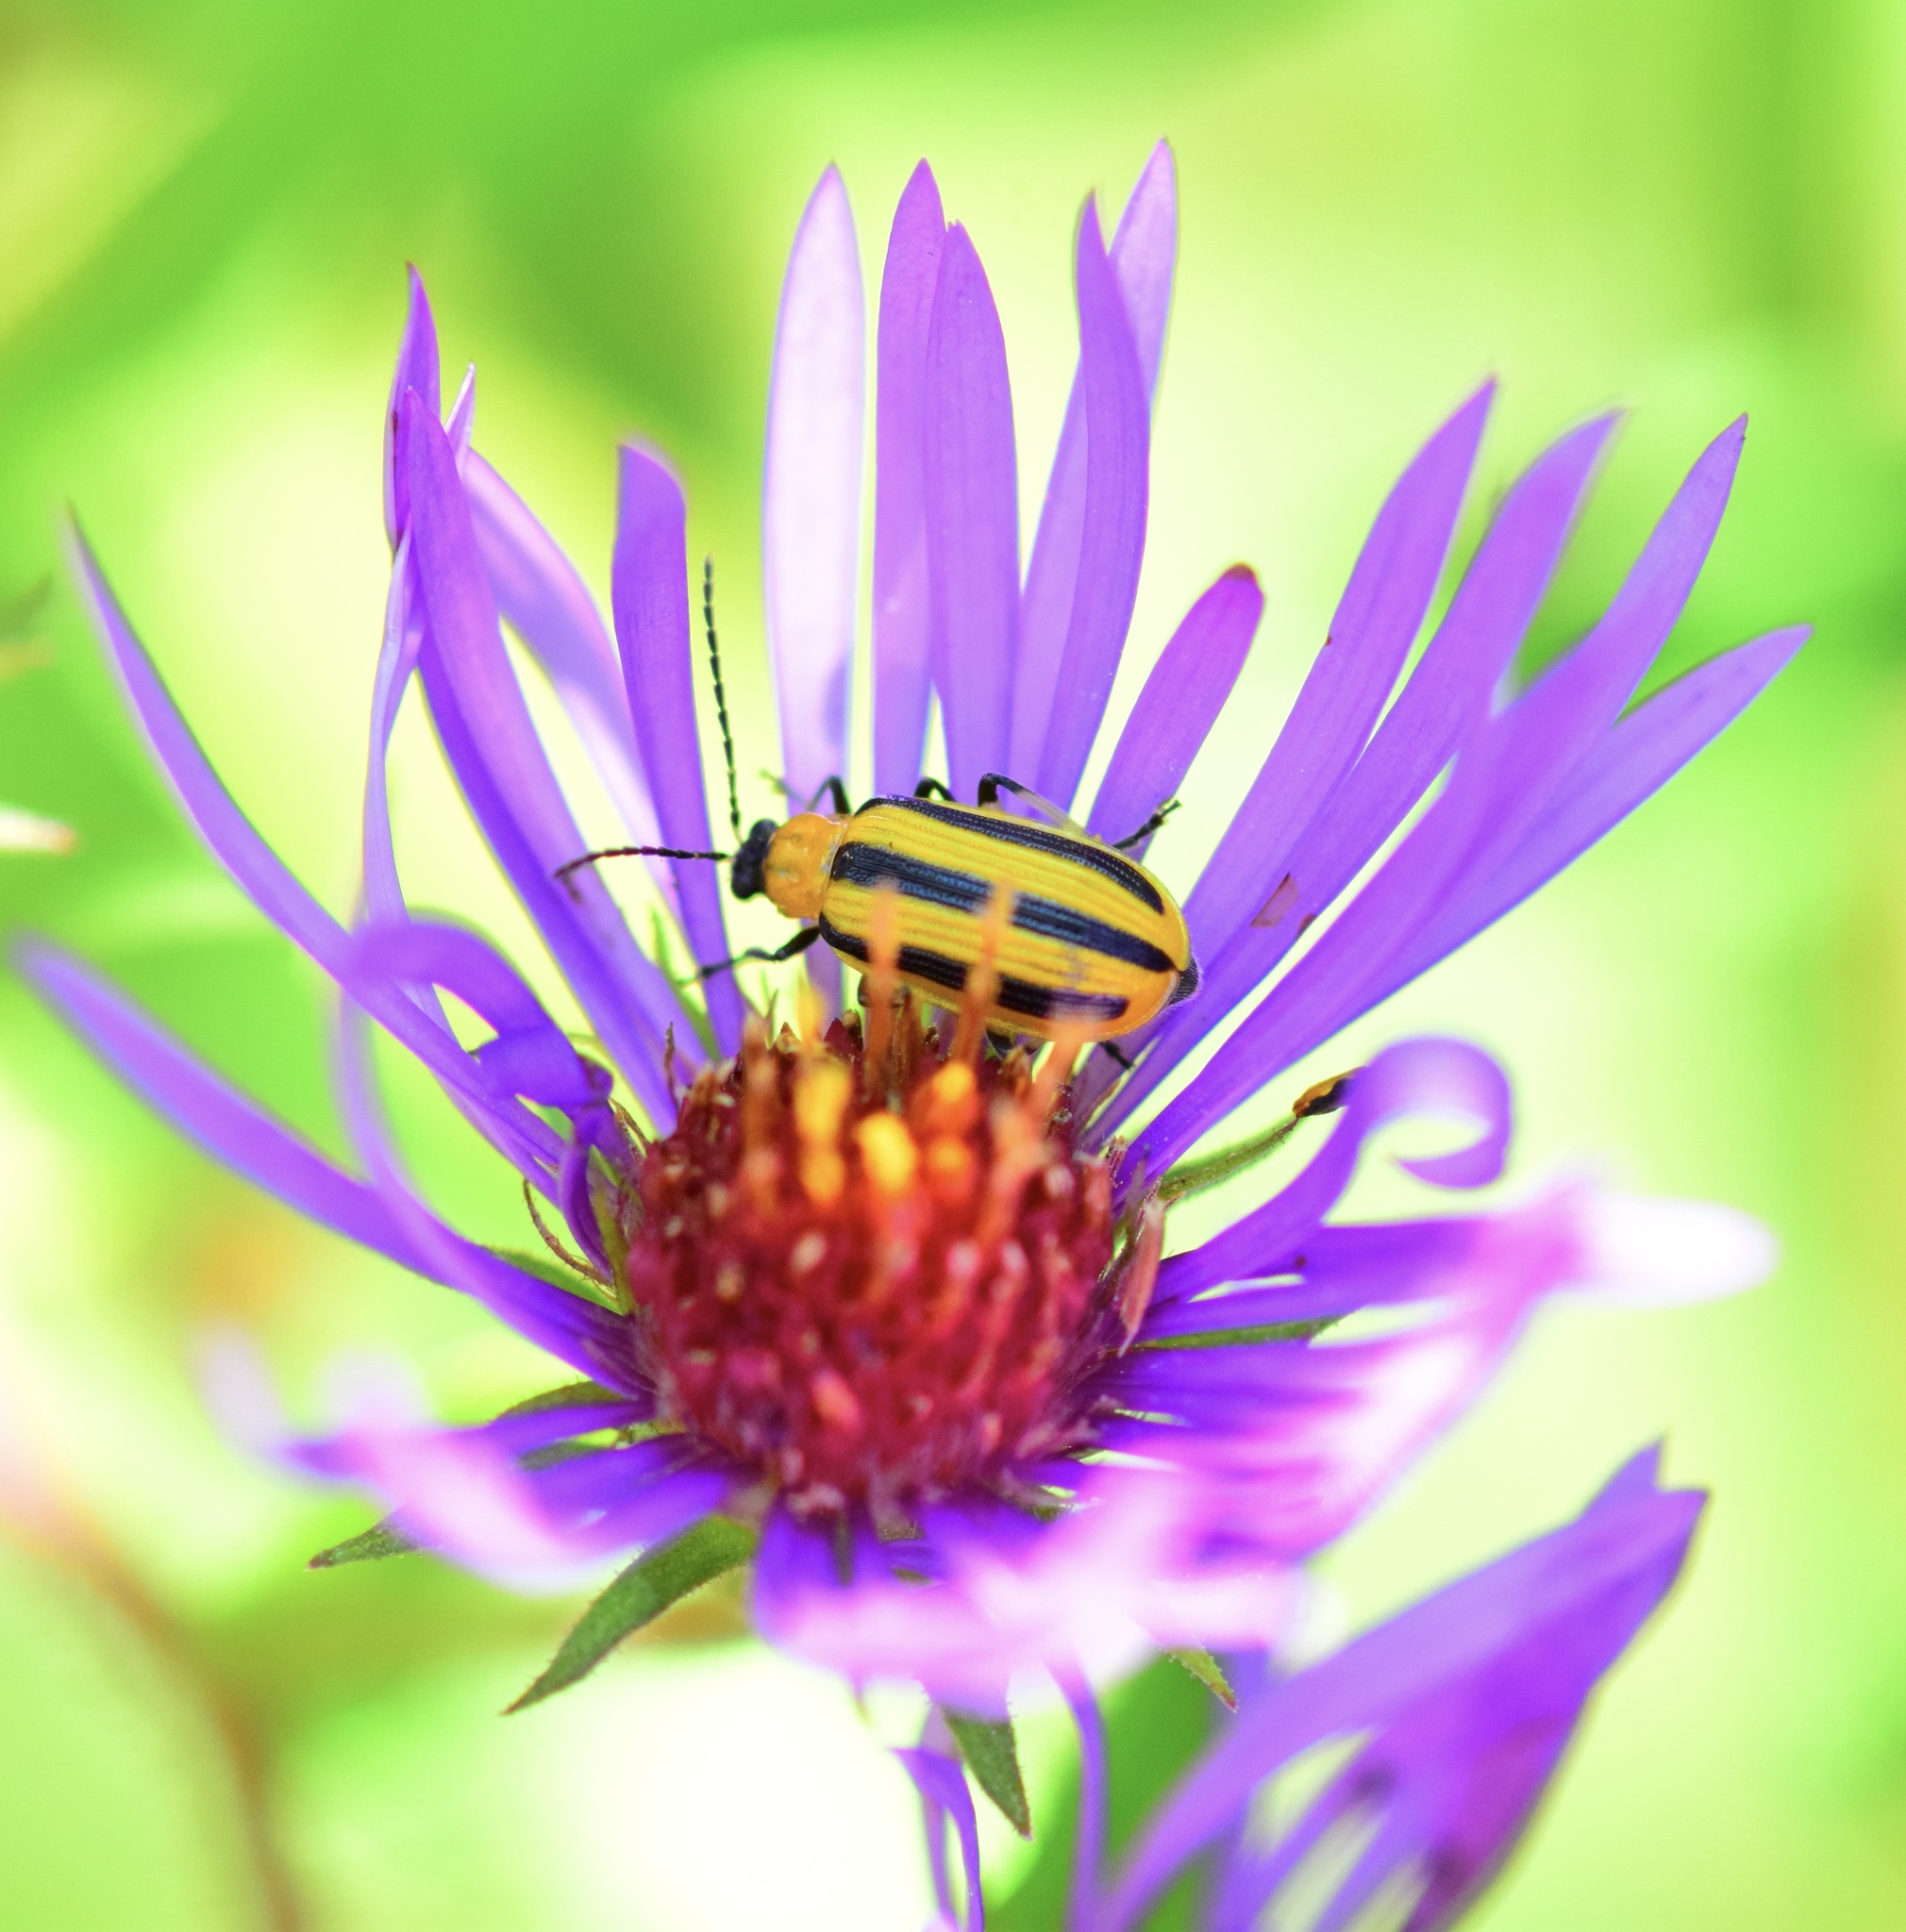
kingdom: Animalia
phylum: Arthropoda
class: Insecta
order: Coleoptera
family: Chrysomelidae
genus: Acalymma
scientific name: Acalymma vittatum
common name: Striped cucumber beetle
